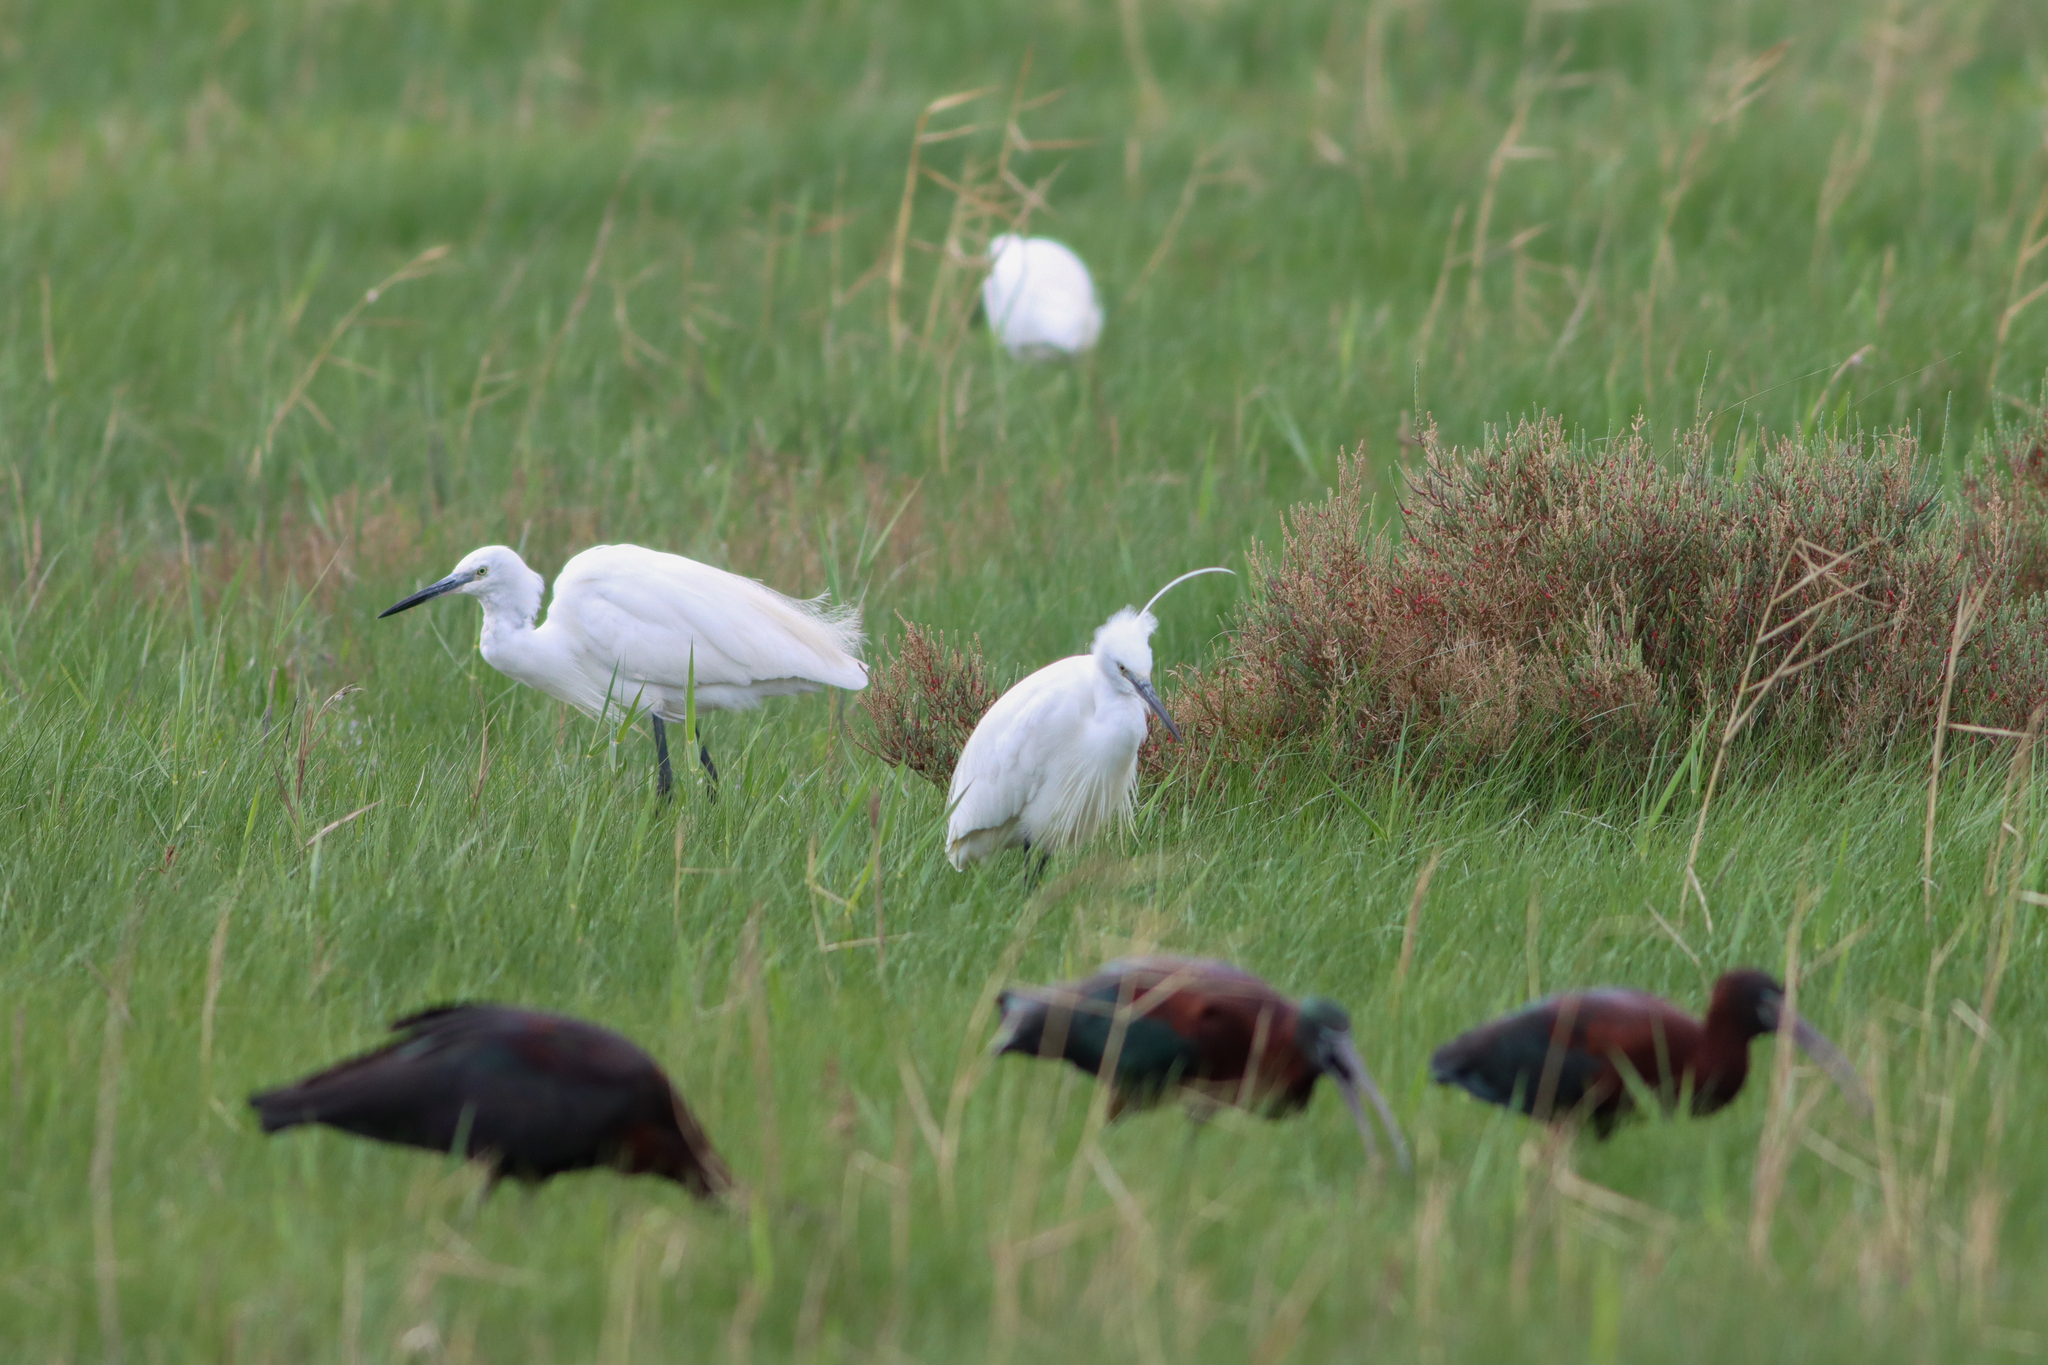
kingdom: Animalia
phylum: Chordata
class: Aves
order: Pelecaniformes
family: Ardeidae
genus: Egretta
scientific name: Egretta garzetta
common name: Little egret
